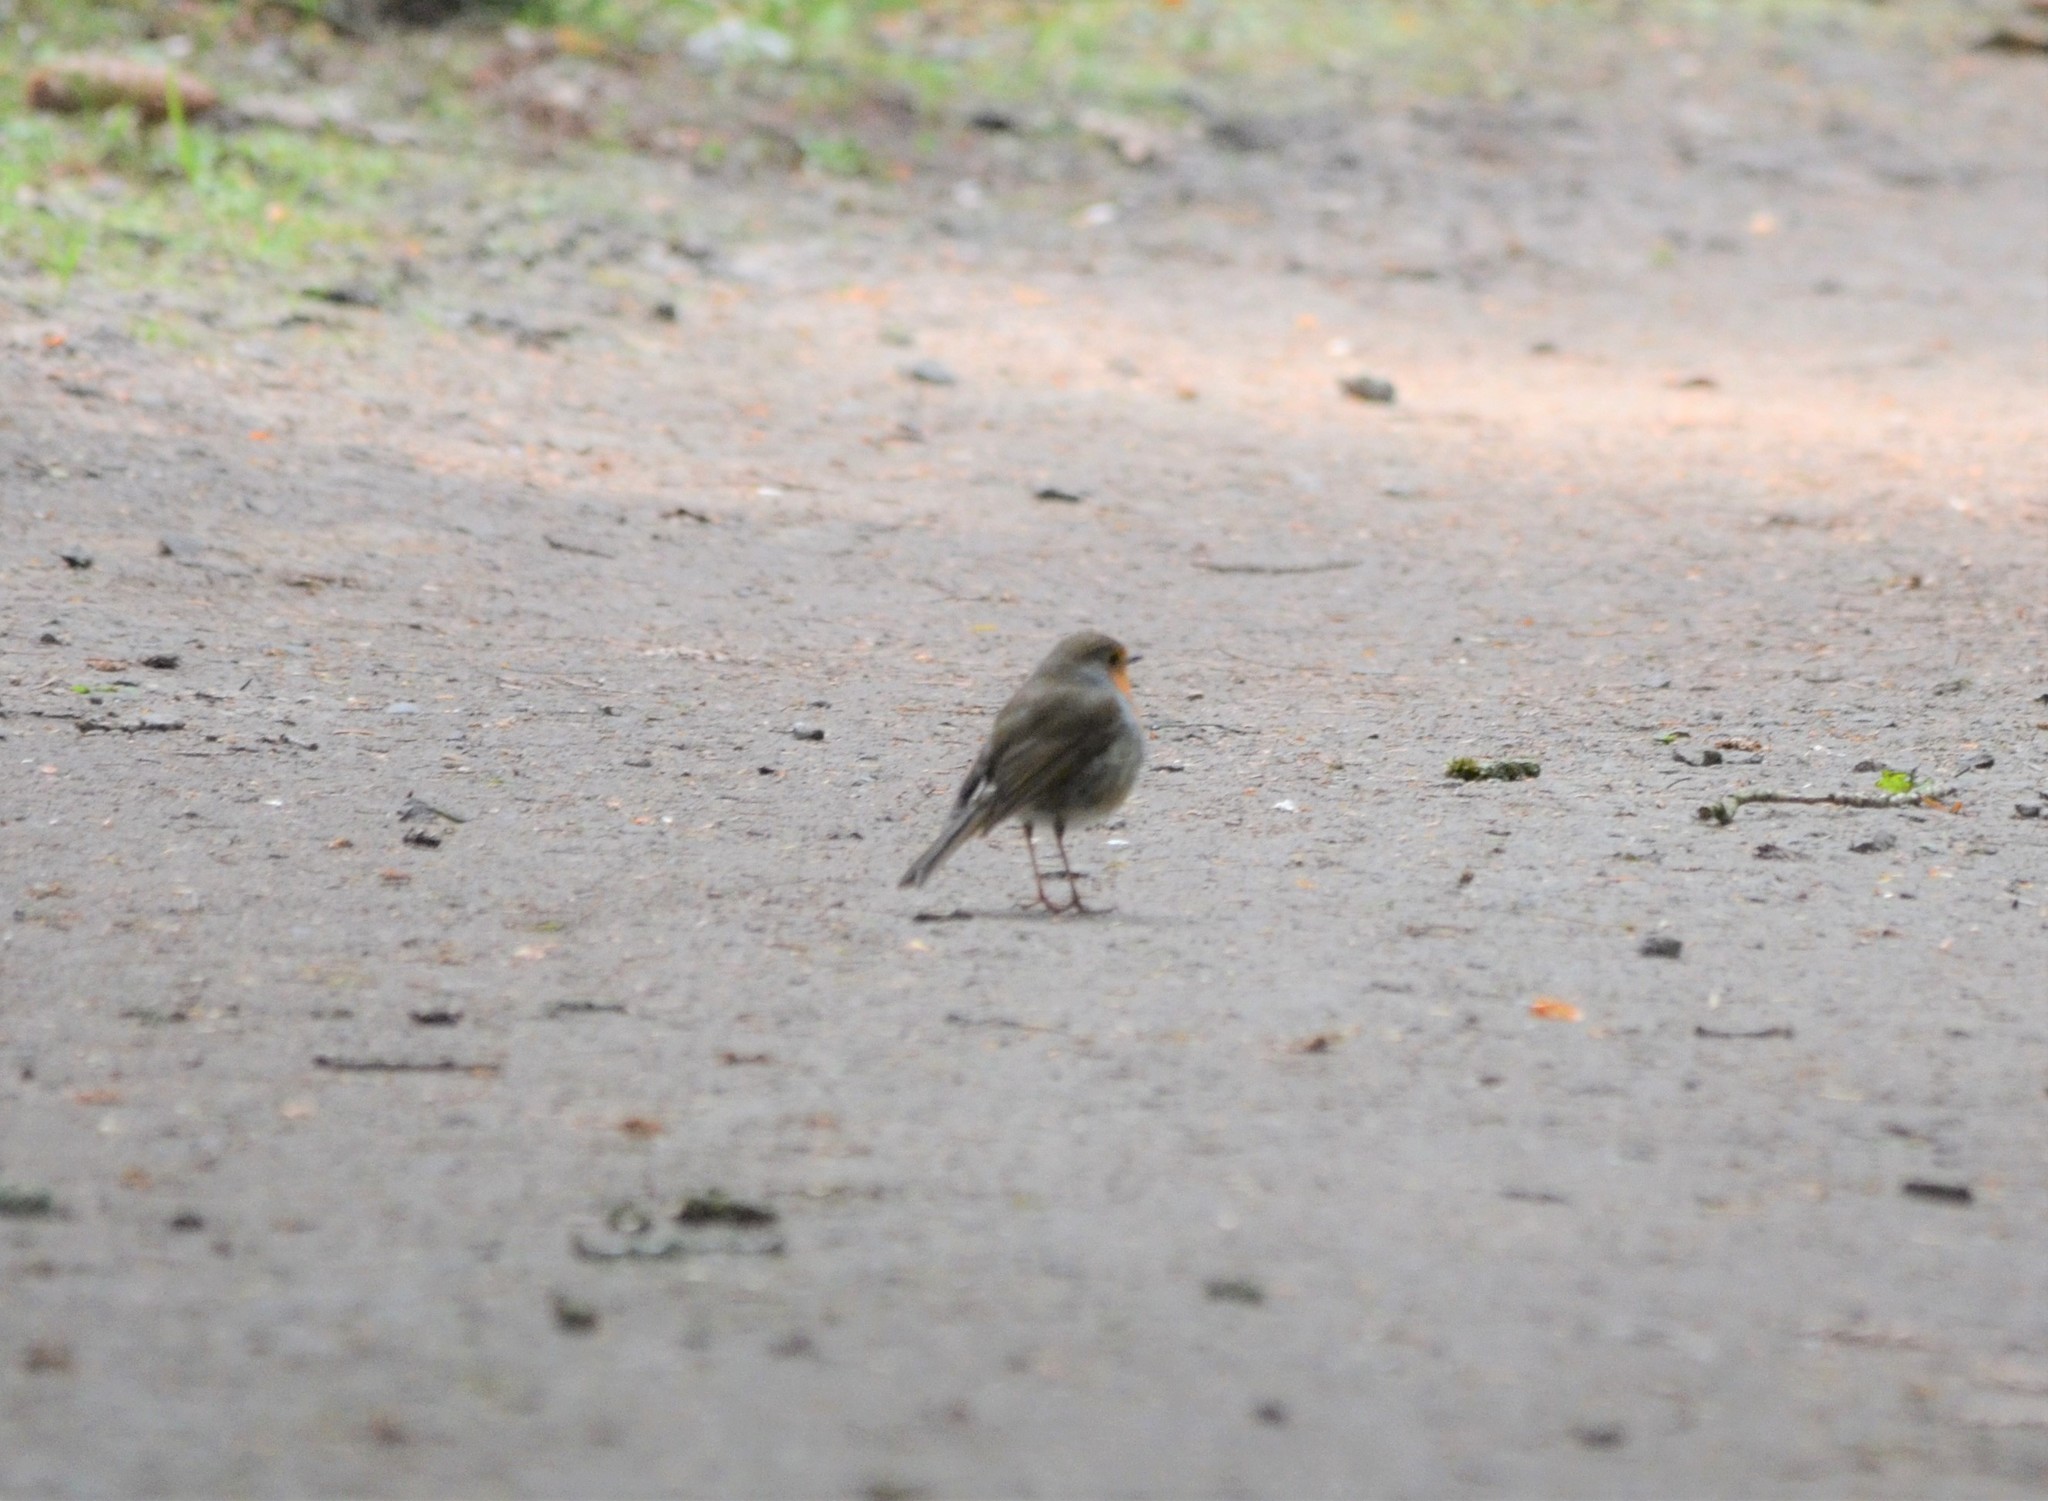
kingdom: Animalia
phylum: Chordata
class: Aves
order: Passeriformes
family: Muscicapidae
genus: Erithacus
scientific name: Erithacus rubecula
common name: European robin
